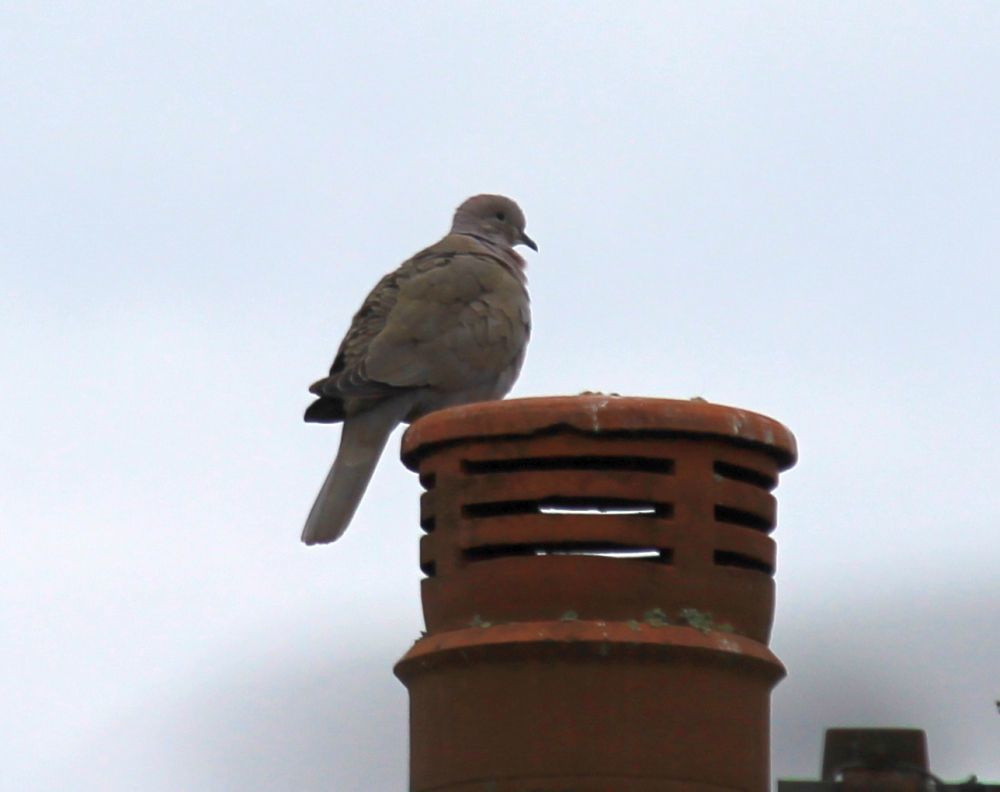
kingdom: Animalia
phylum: Chordata
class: Aves
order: Columbiformes
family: Columbidae
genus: Streptopelia
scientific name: Streptopelia decaocto
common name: Eurasian collared dove
